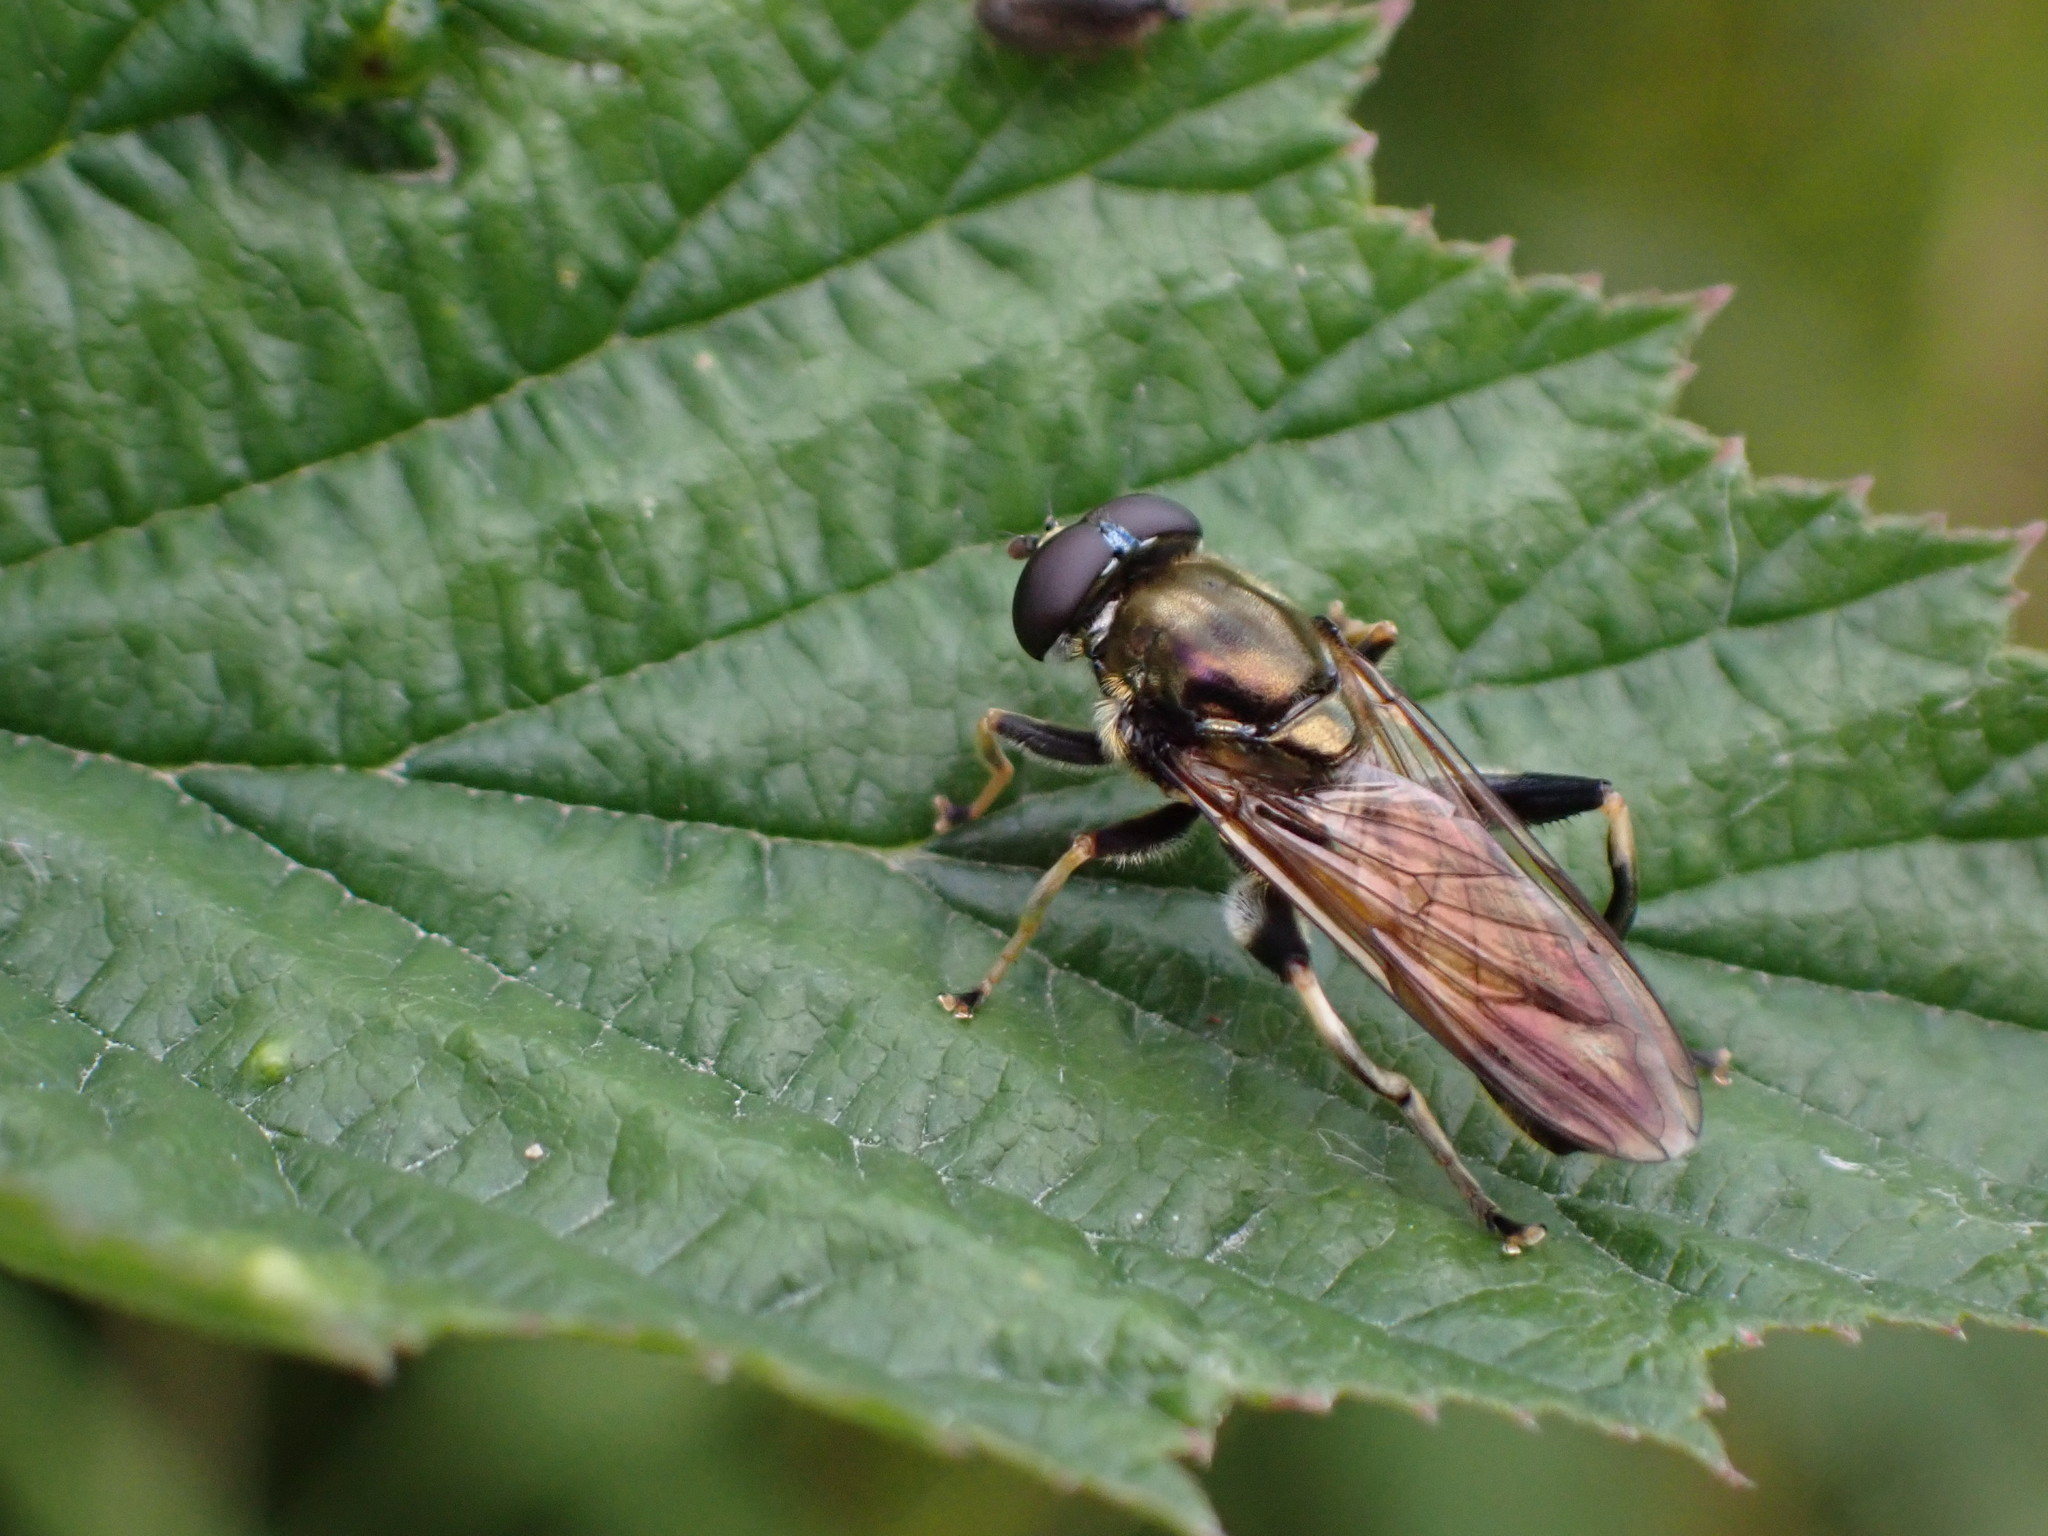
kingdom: Animalia
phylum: Arthropoda
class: Insecta
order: Diptera
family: Syrphidae
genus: Xylota
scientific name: Xylota segnis
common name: Brown-toed forest fly
